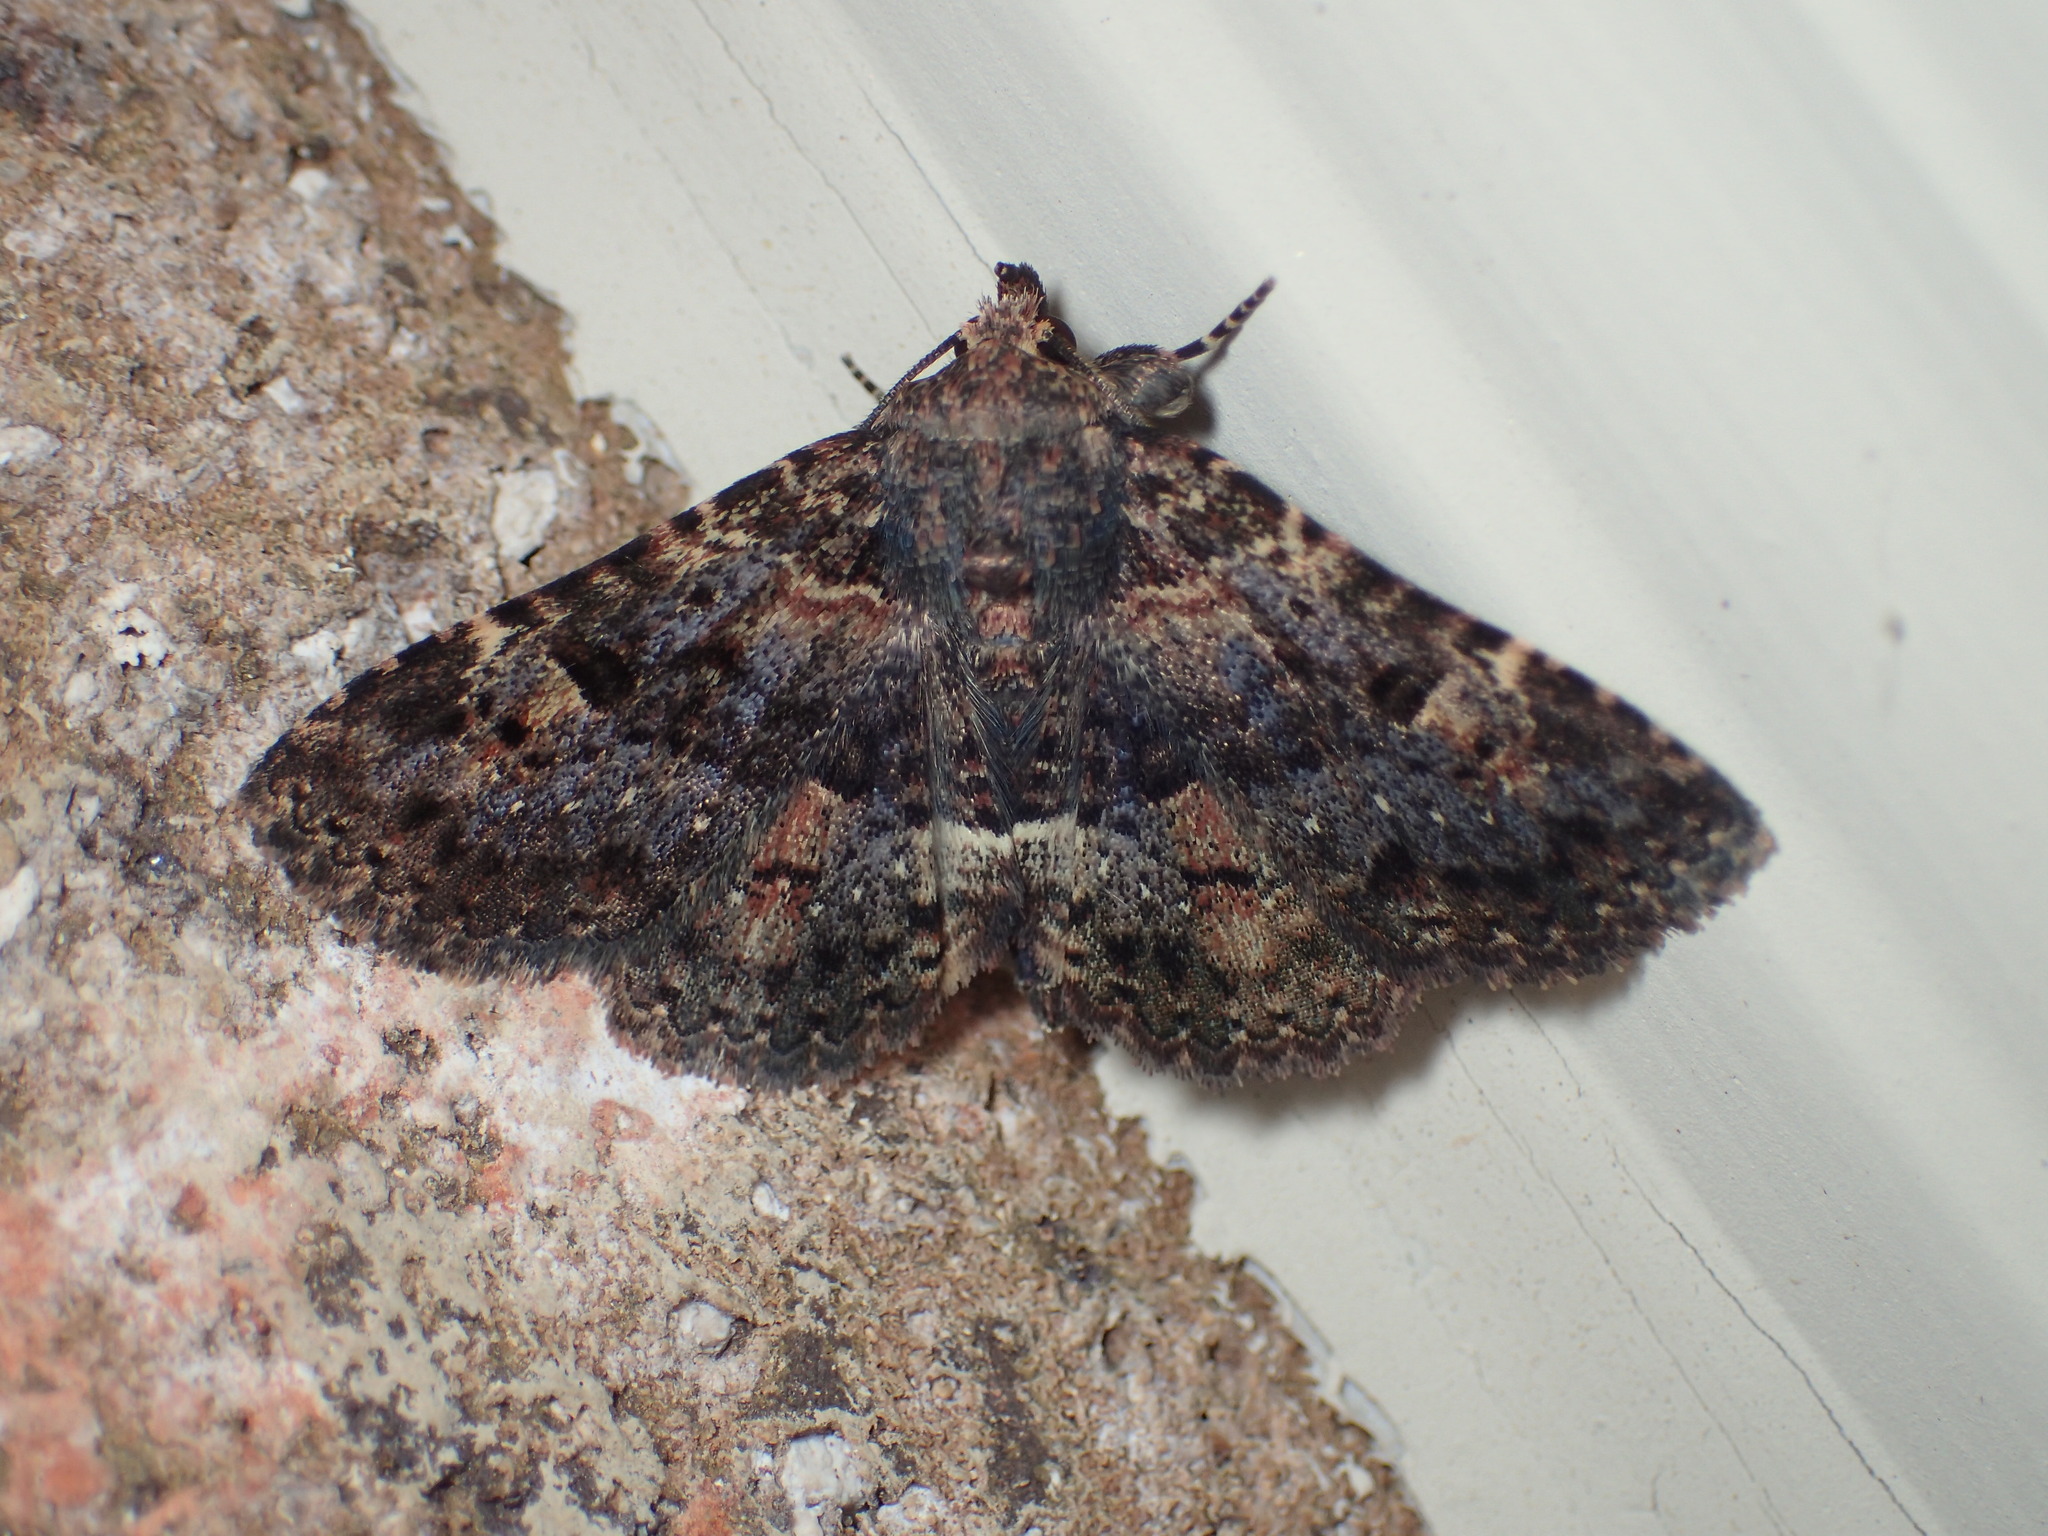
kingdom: Animalia
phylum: Arthropoda
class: Insecta
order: Lepidoptera
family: Erebidae
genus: Metalectra
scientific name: Metalectra discalis
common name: Common fungus moth
